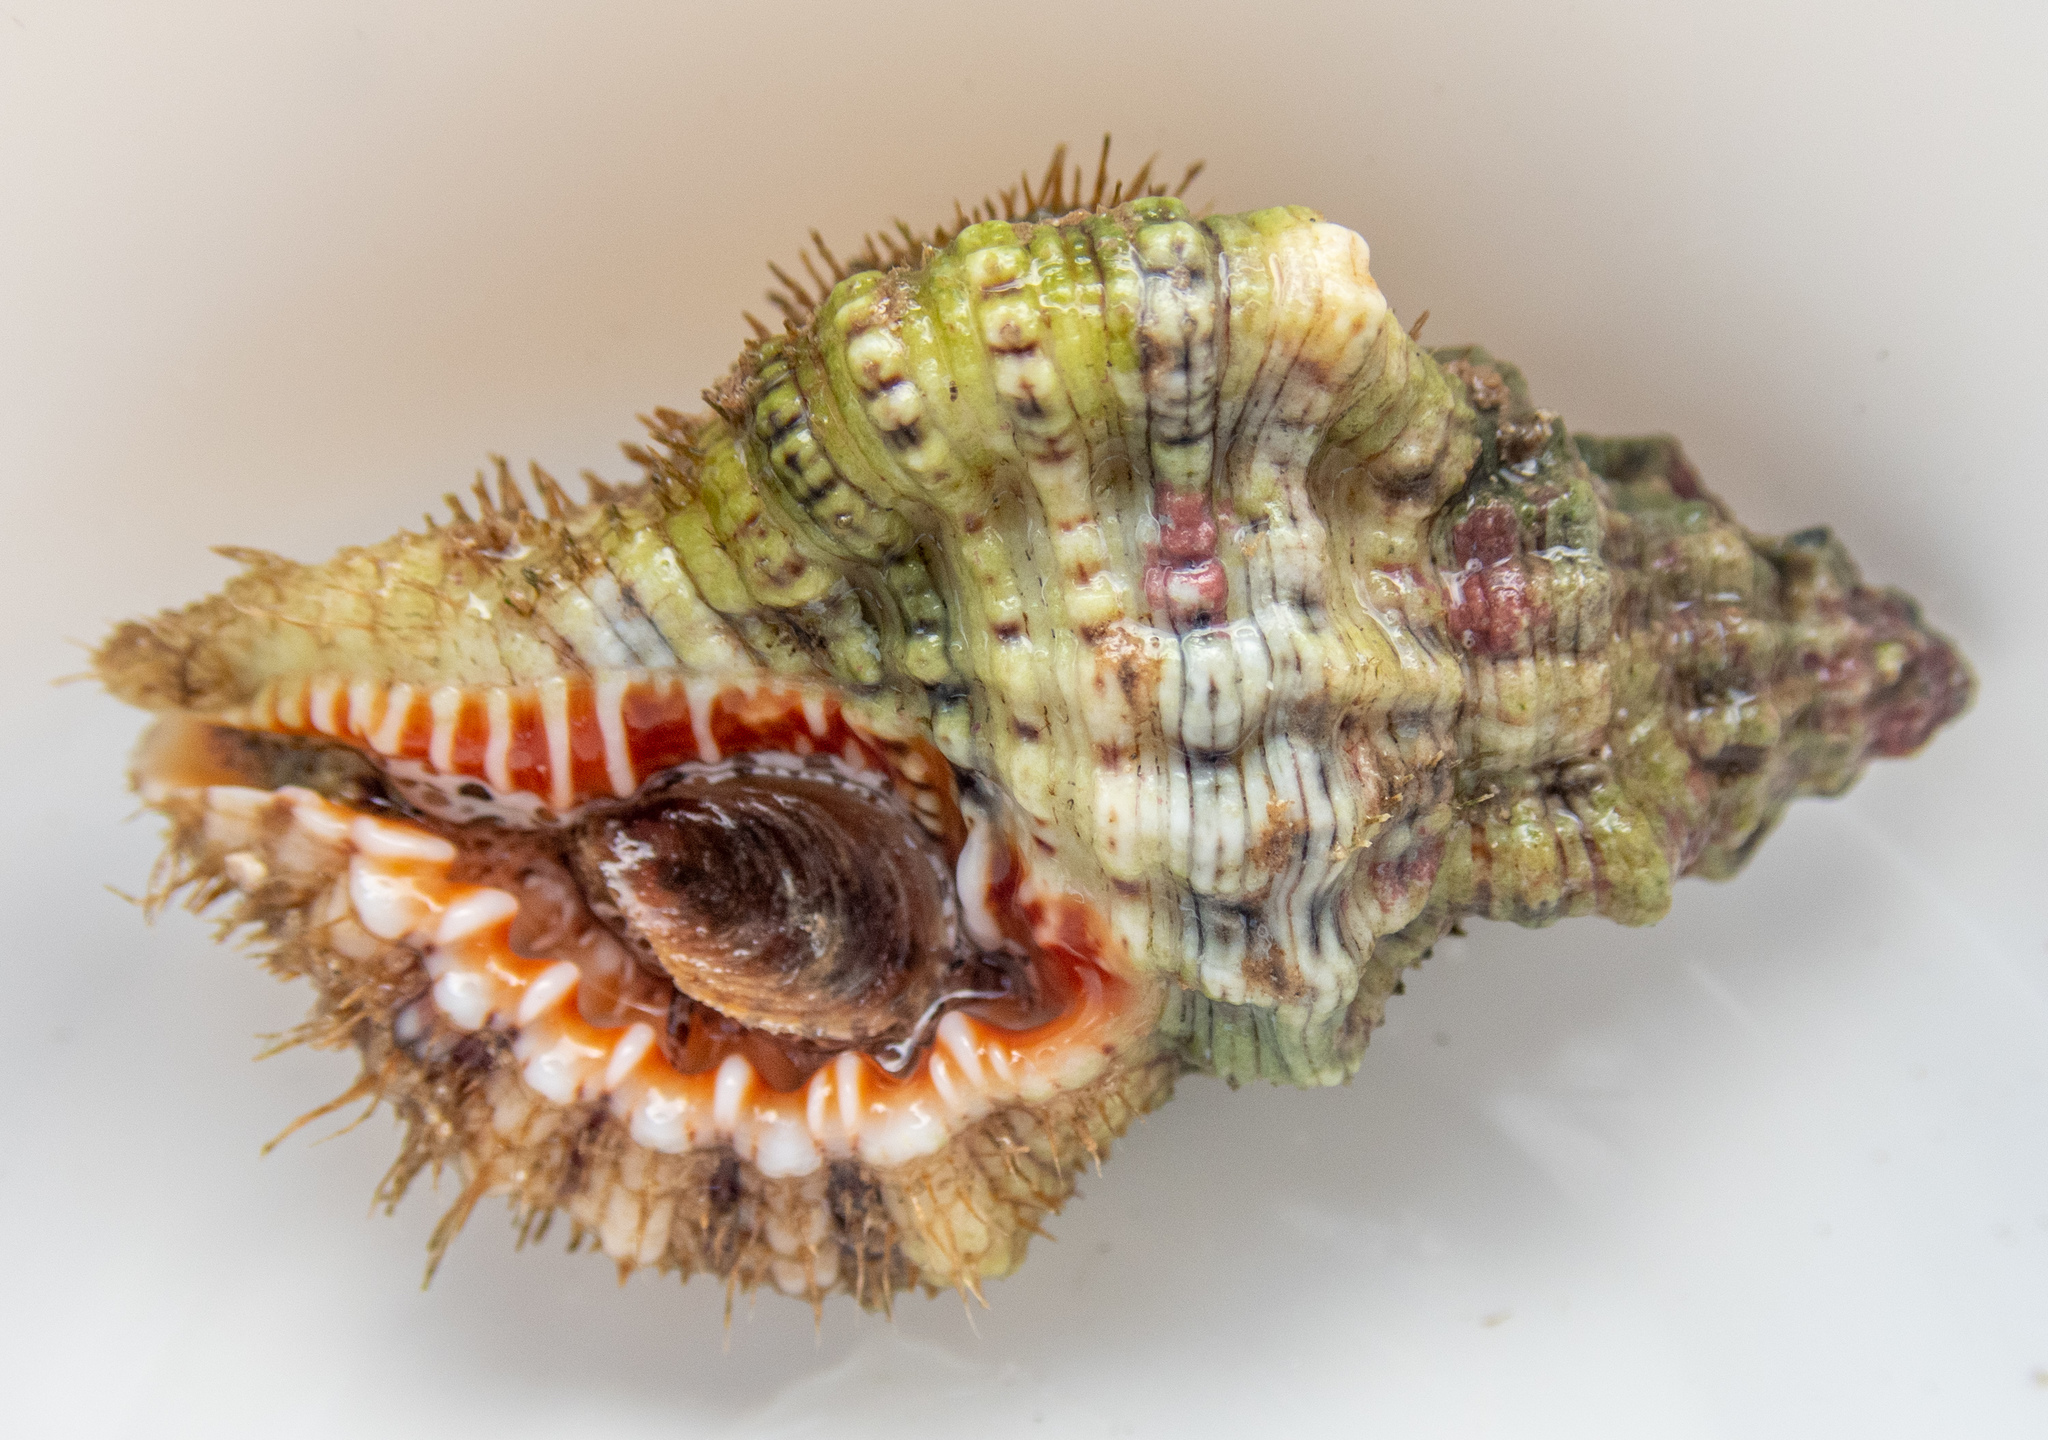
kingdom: Animalia
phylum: Mollusca
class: Gastropoda
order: Littorinimorpha
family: Cymatiidae
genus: Monoplex
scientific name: Monoplex nicobaricus
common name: Goldmouth triton
